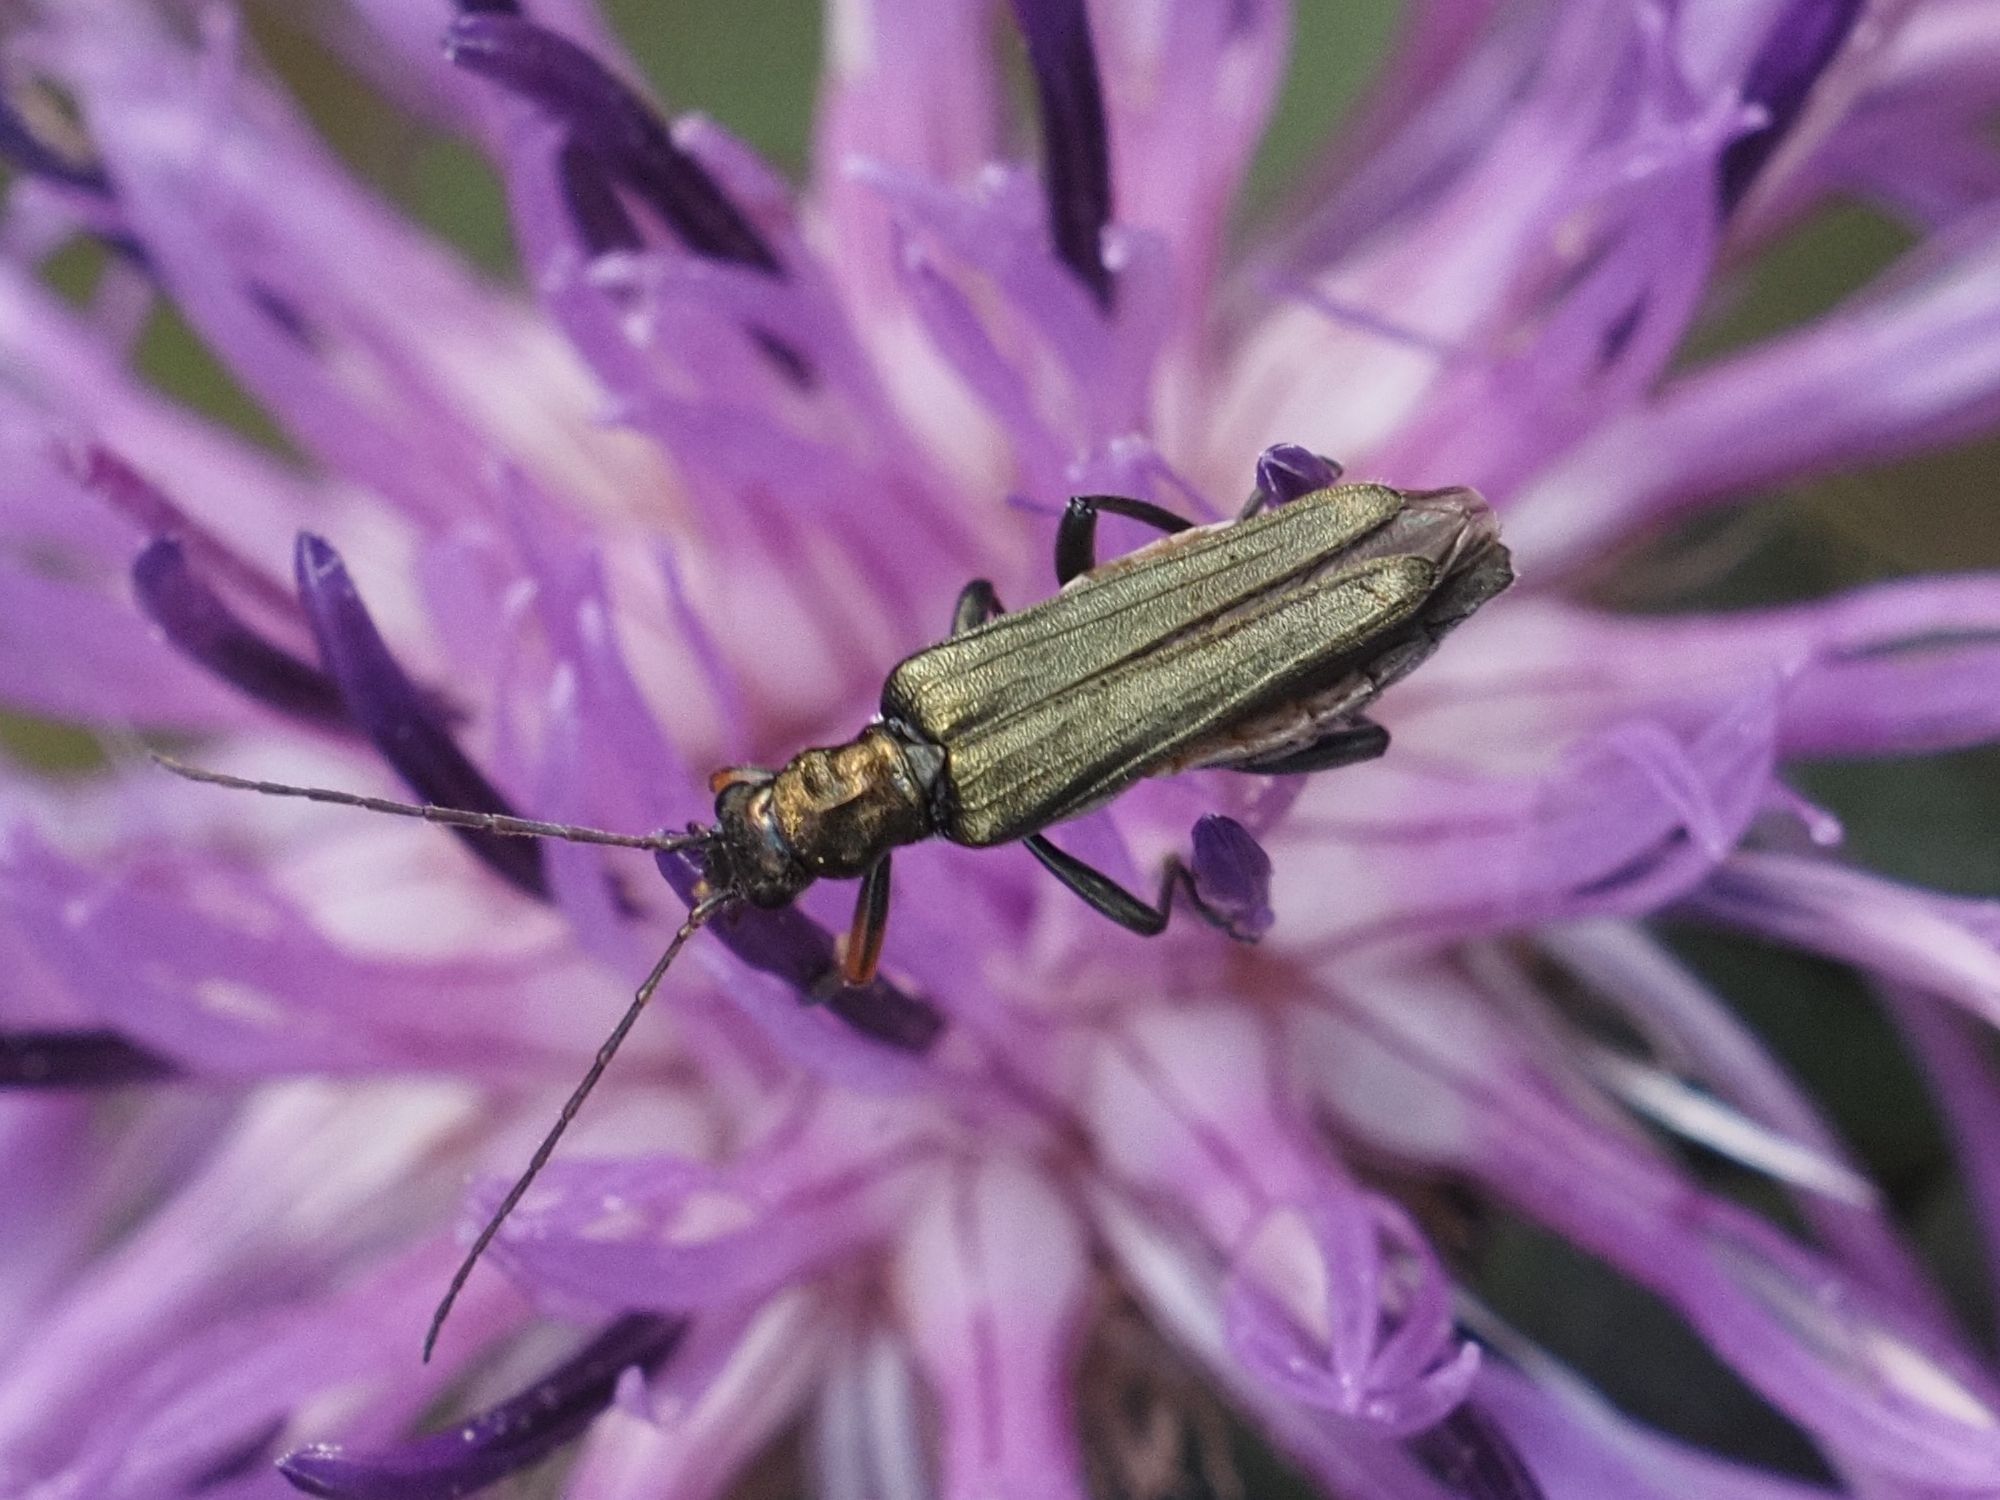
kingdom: Animalia
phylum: Arthropoda
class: Insecta
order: Coleoptera
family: Oedemeridae
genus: Oedemera
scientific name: Oedemera flavipes
